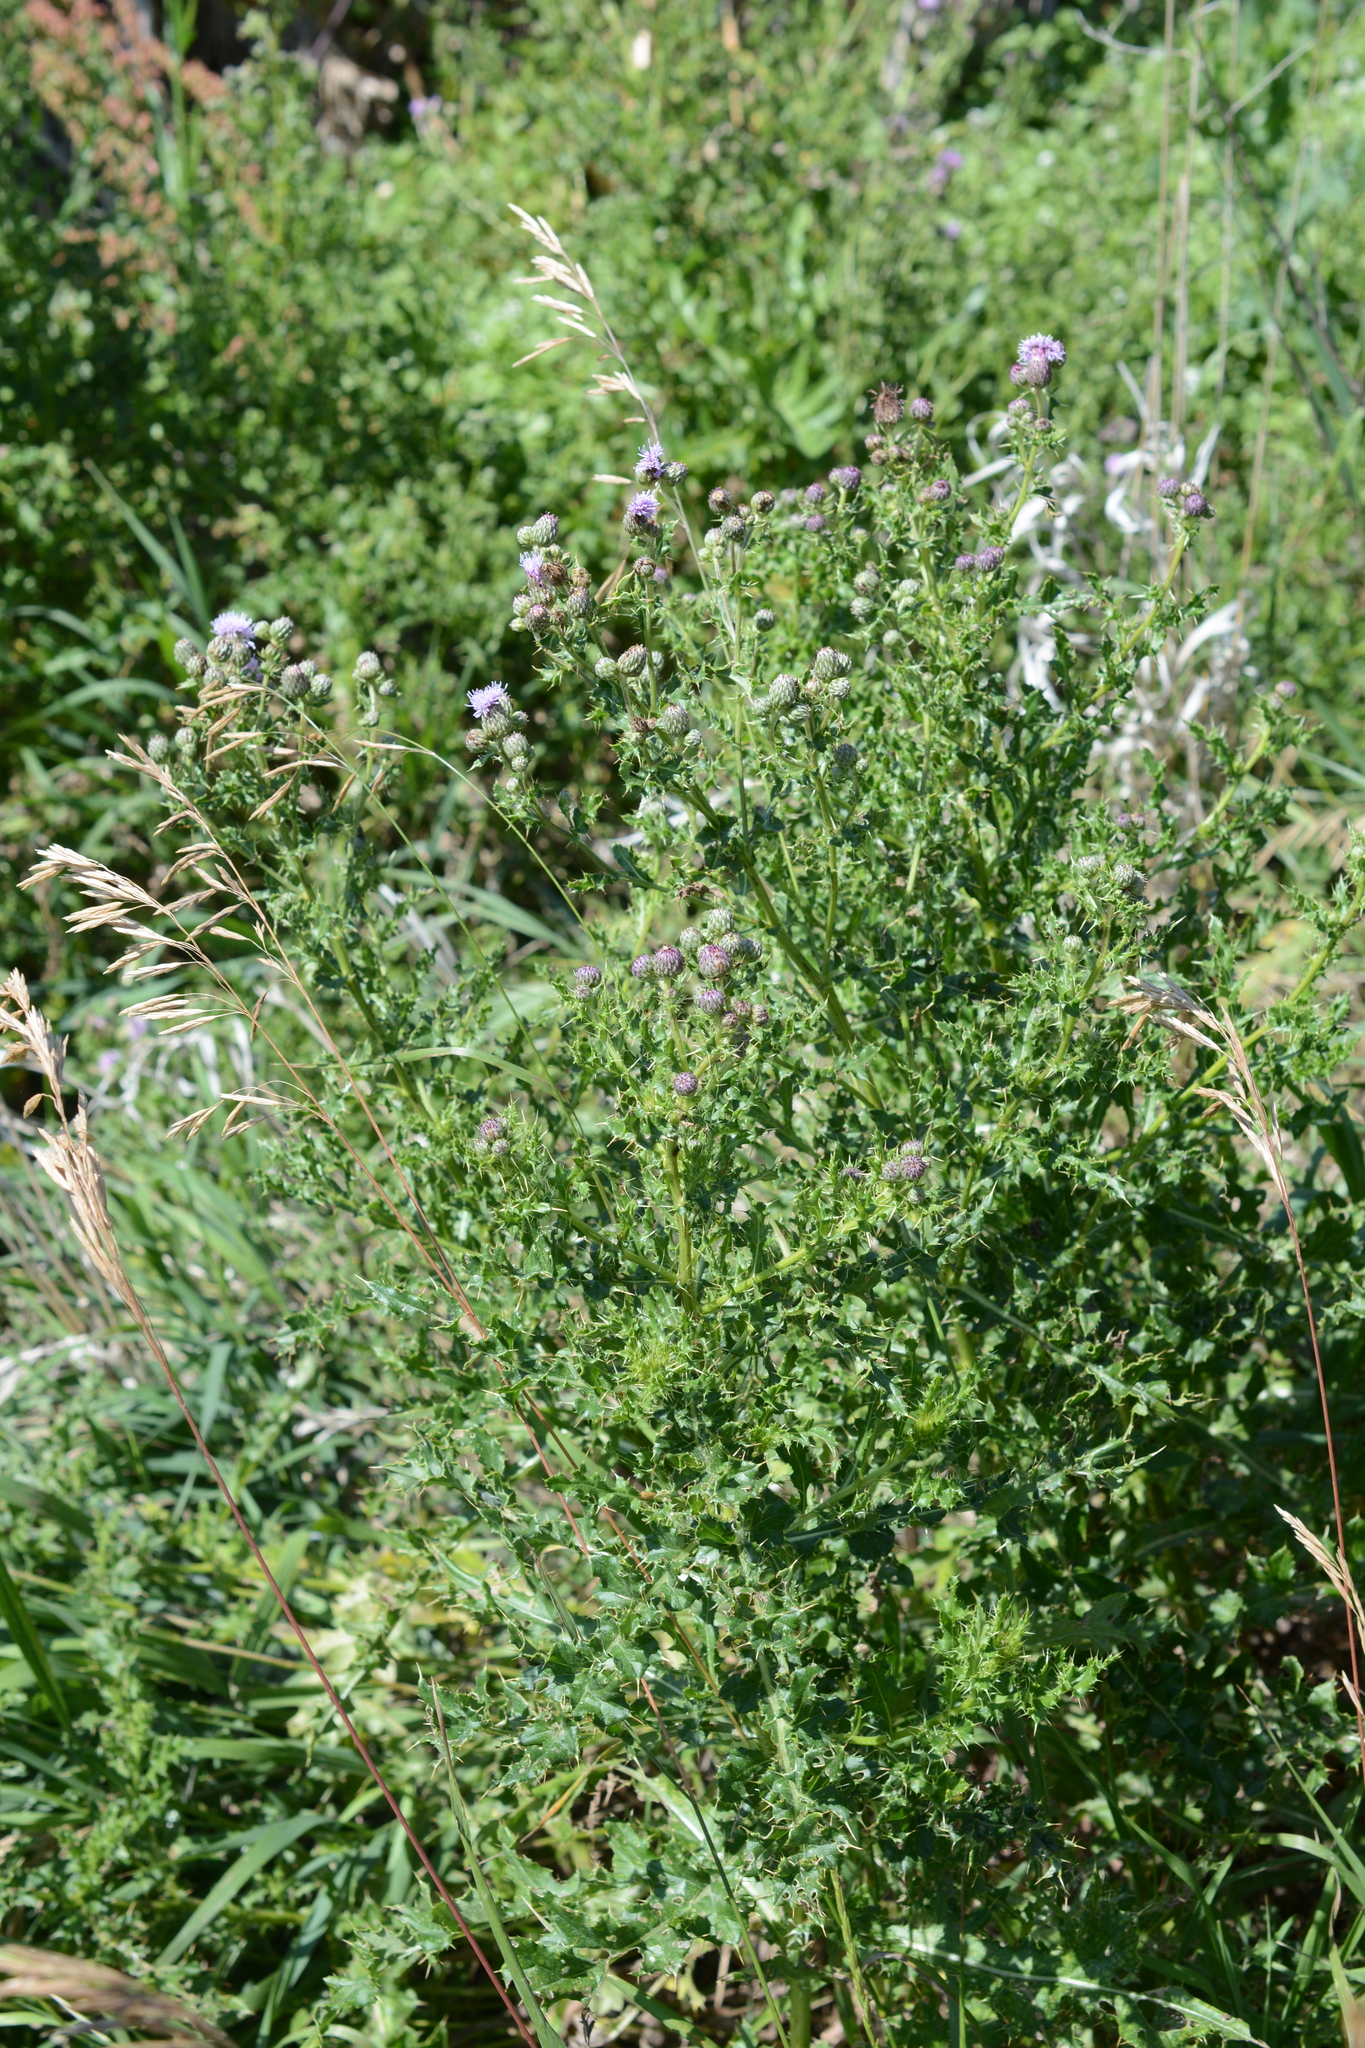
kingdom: Plantae
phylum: Tracheophyta
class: Magnoliopsida
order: Asterales
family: Asteraceae
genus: Cirsium
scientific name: Cirsium arvense
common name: Creeping thistle
